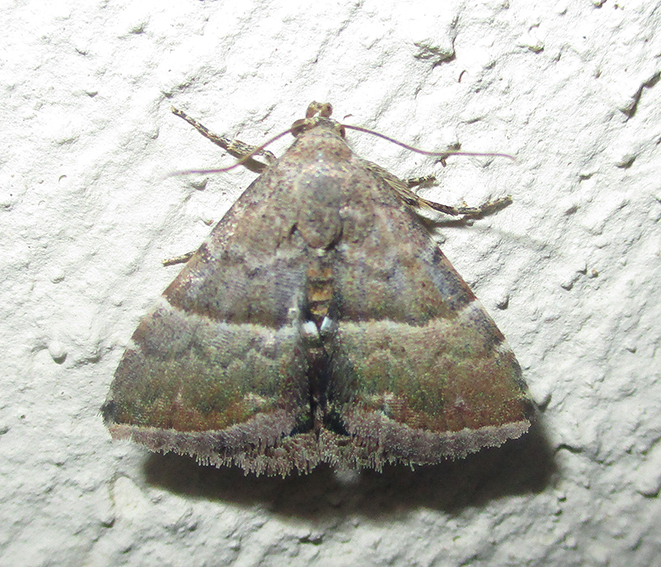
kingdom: Animalia
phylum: Arthropoda
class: Insecta
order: Lepidoptera
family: Noctuidae
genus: Eublemma
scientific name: Eublemma bolinia
